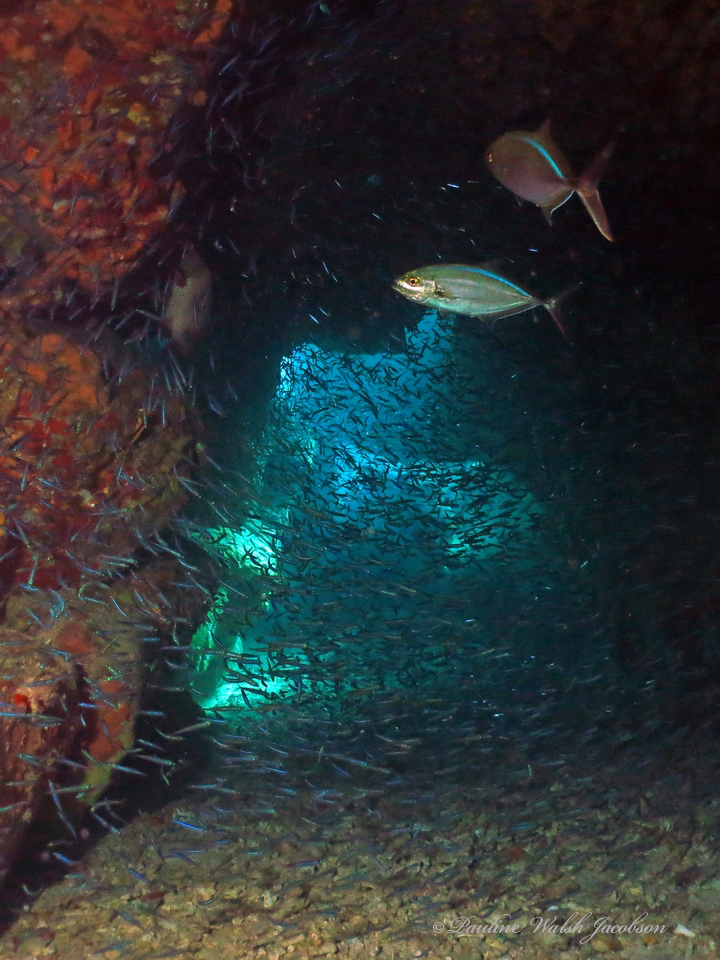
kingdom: Animalia
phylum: Chordata
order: Perciformes
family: Carangidae
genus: Caranx
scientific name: Caranx ruber
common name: Bar jack
